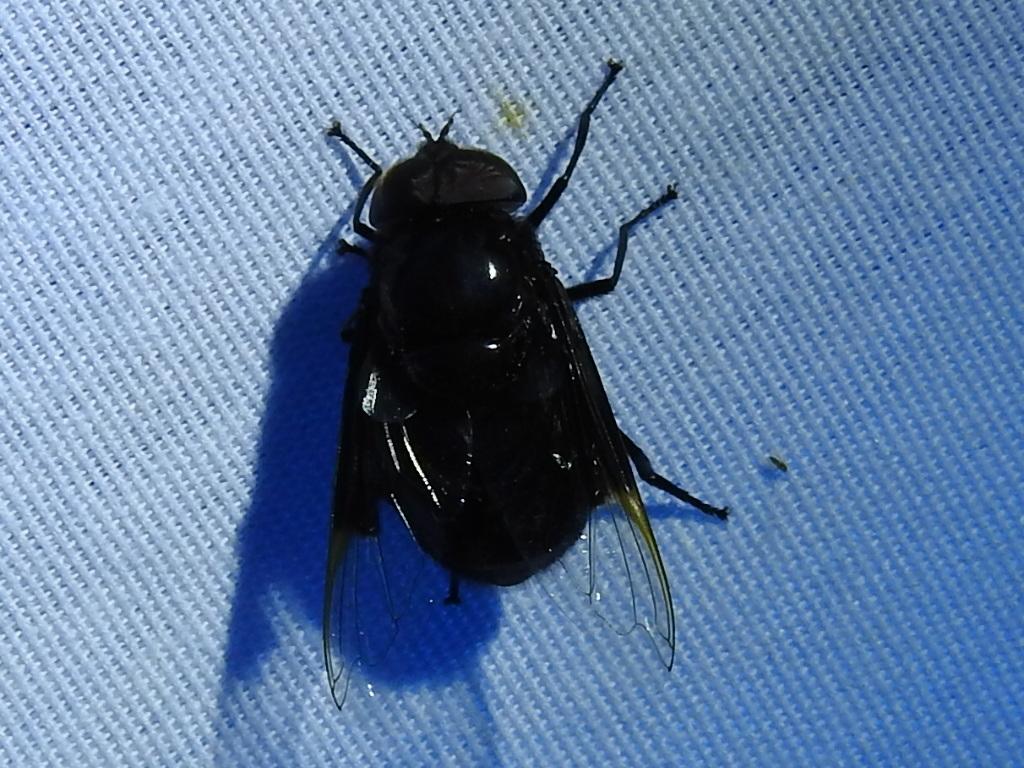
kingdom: Animalia
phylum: Arthropoda
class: Insecta
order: Diptera
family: Syrphidae
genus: Copestylum
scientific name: Copestylum
